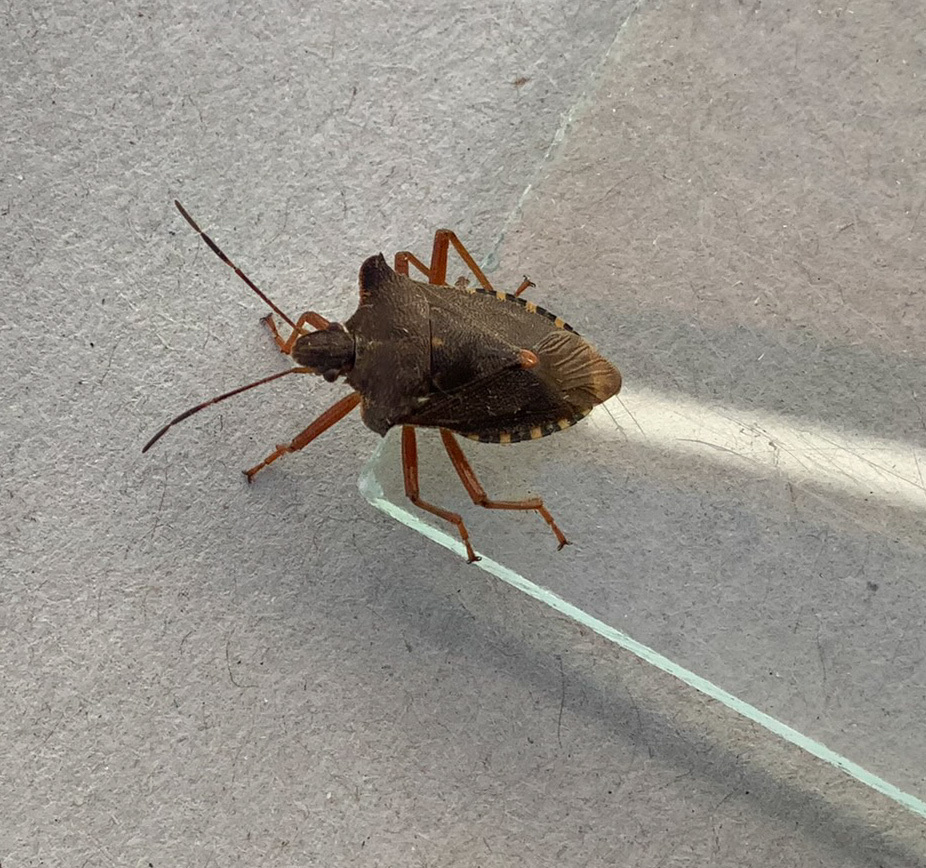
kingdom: Animalia
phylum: Arthropoda
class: Insecta
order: Hemiptera
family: Pentatomidae
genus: Pentatoma
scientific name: Pentatoma rufipes
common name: Forest bug
